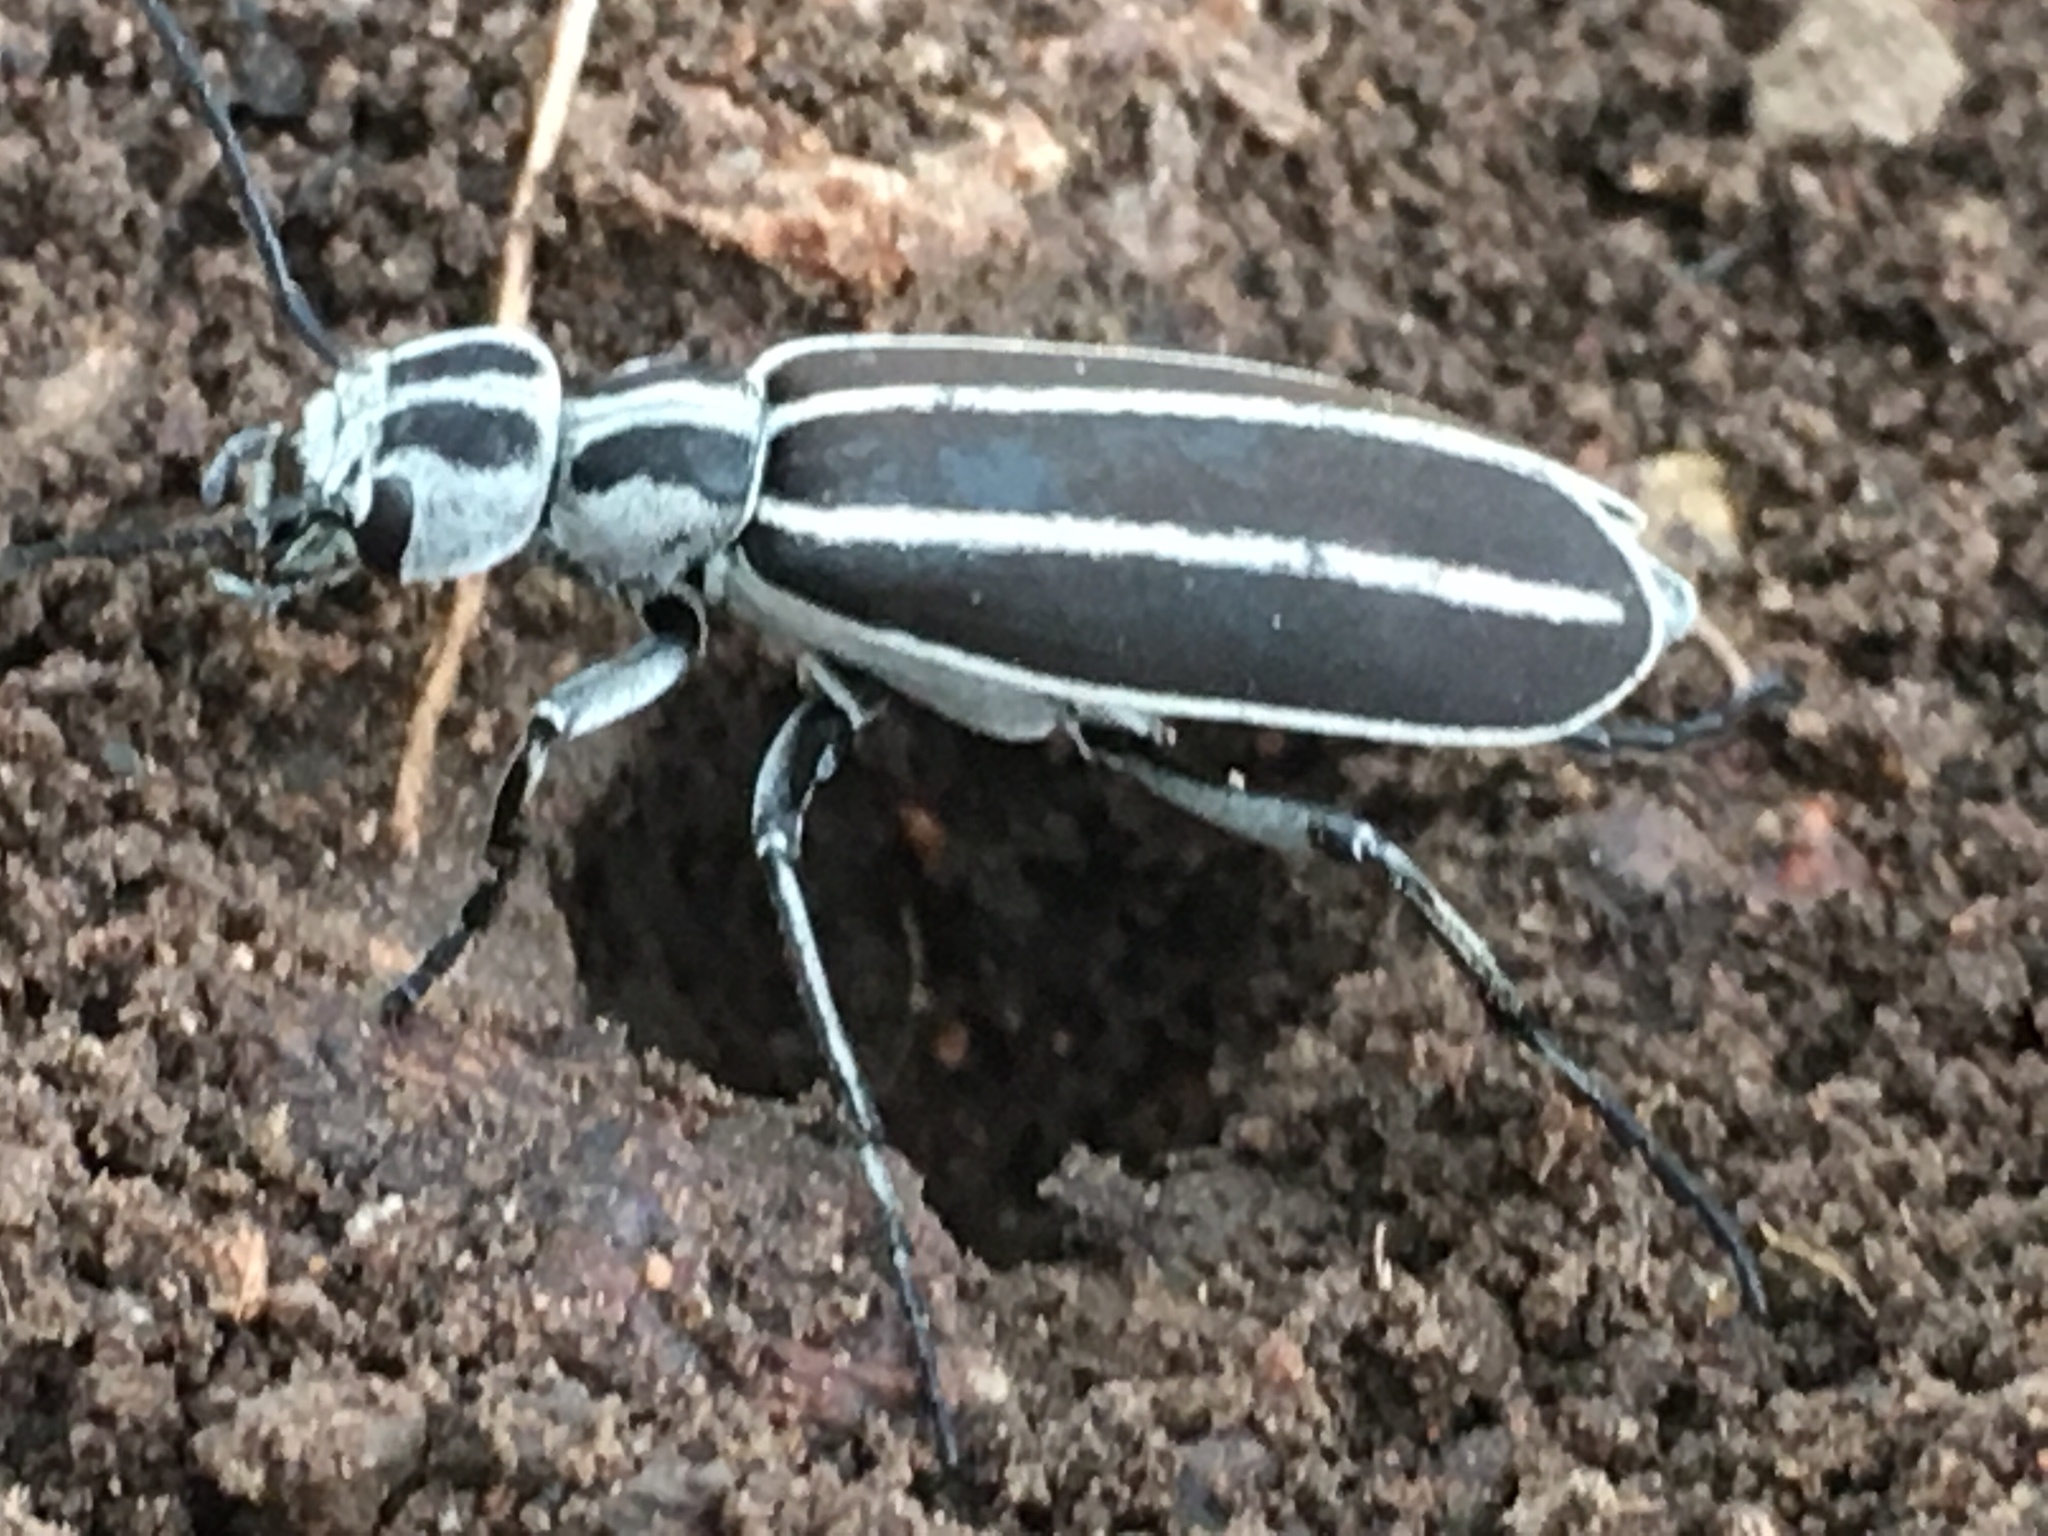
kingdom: Animalia
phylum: Arthropoda
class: Insecta
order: Coleoptera
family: Meloidae
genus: Epicauta
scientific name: Epicauta purpurea
